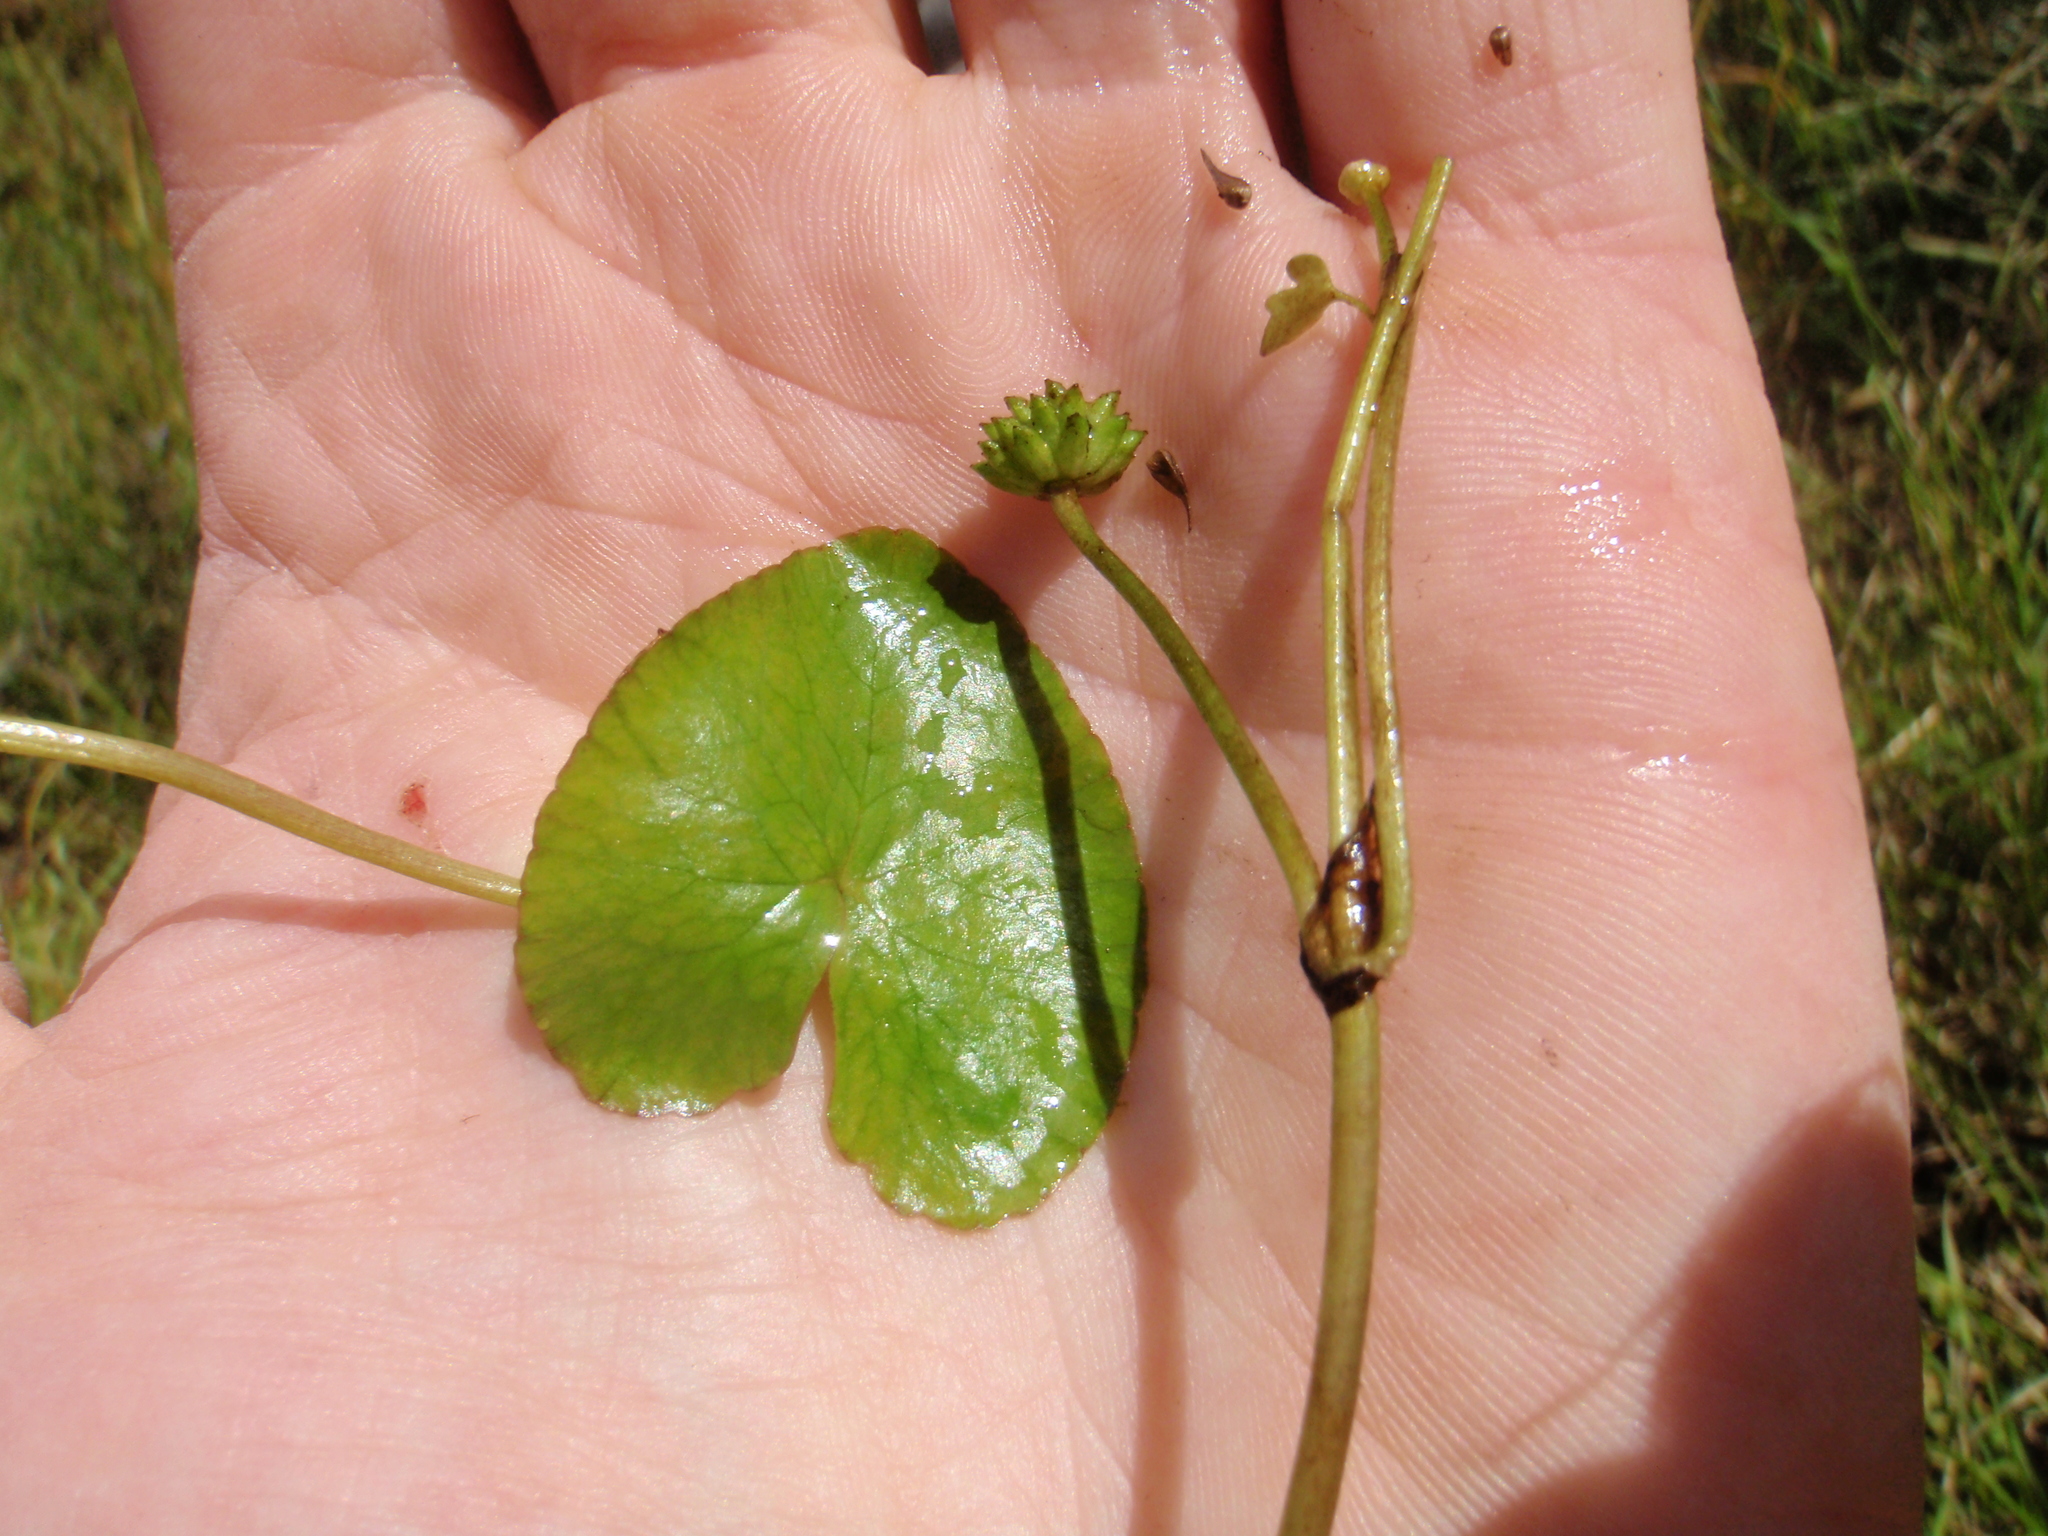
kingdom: Plantae
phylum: Tracheophyta
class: Magnoliopsida
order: Ranunculales
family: Ranunculaceae
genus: Caltha
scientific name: Caltha natans
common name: Floating marsh marigold
